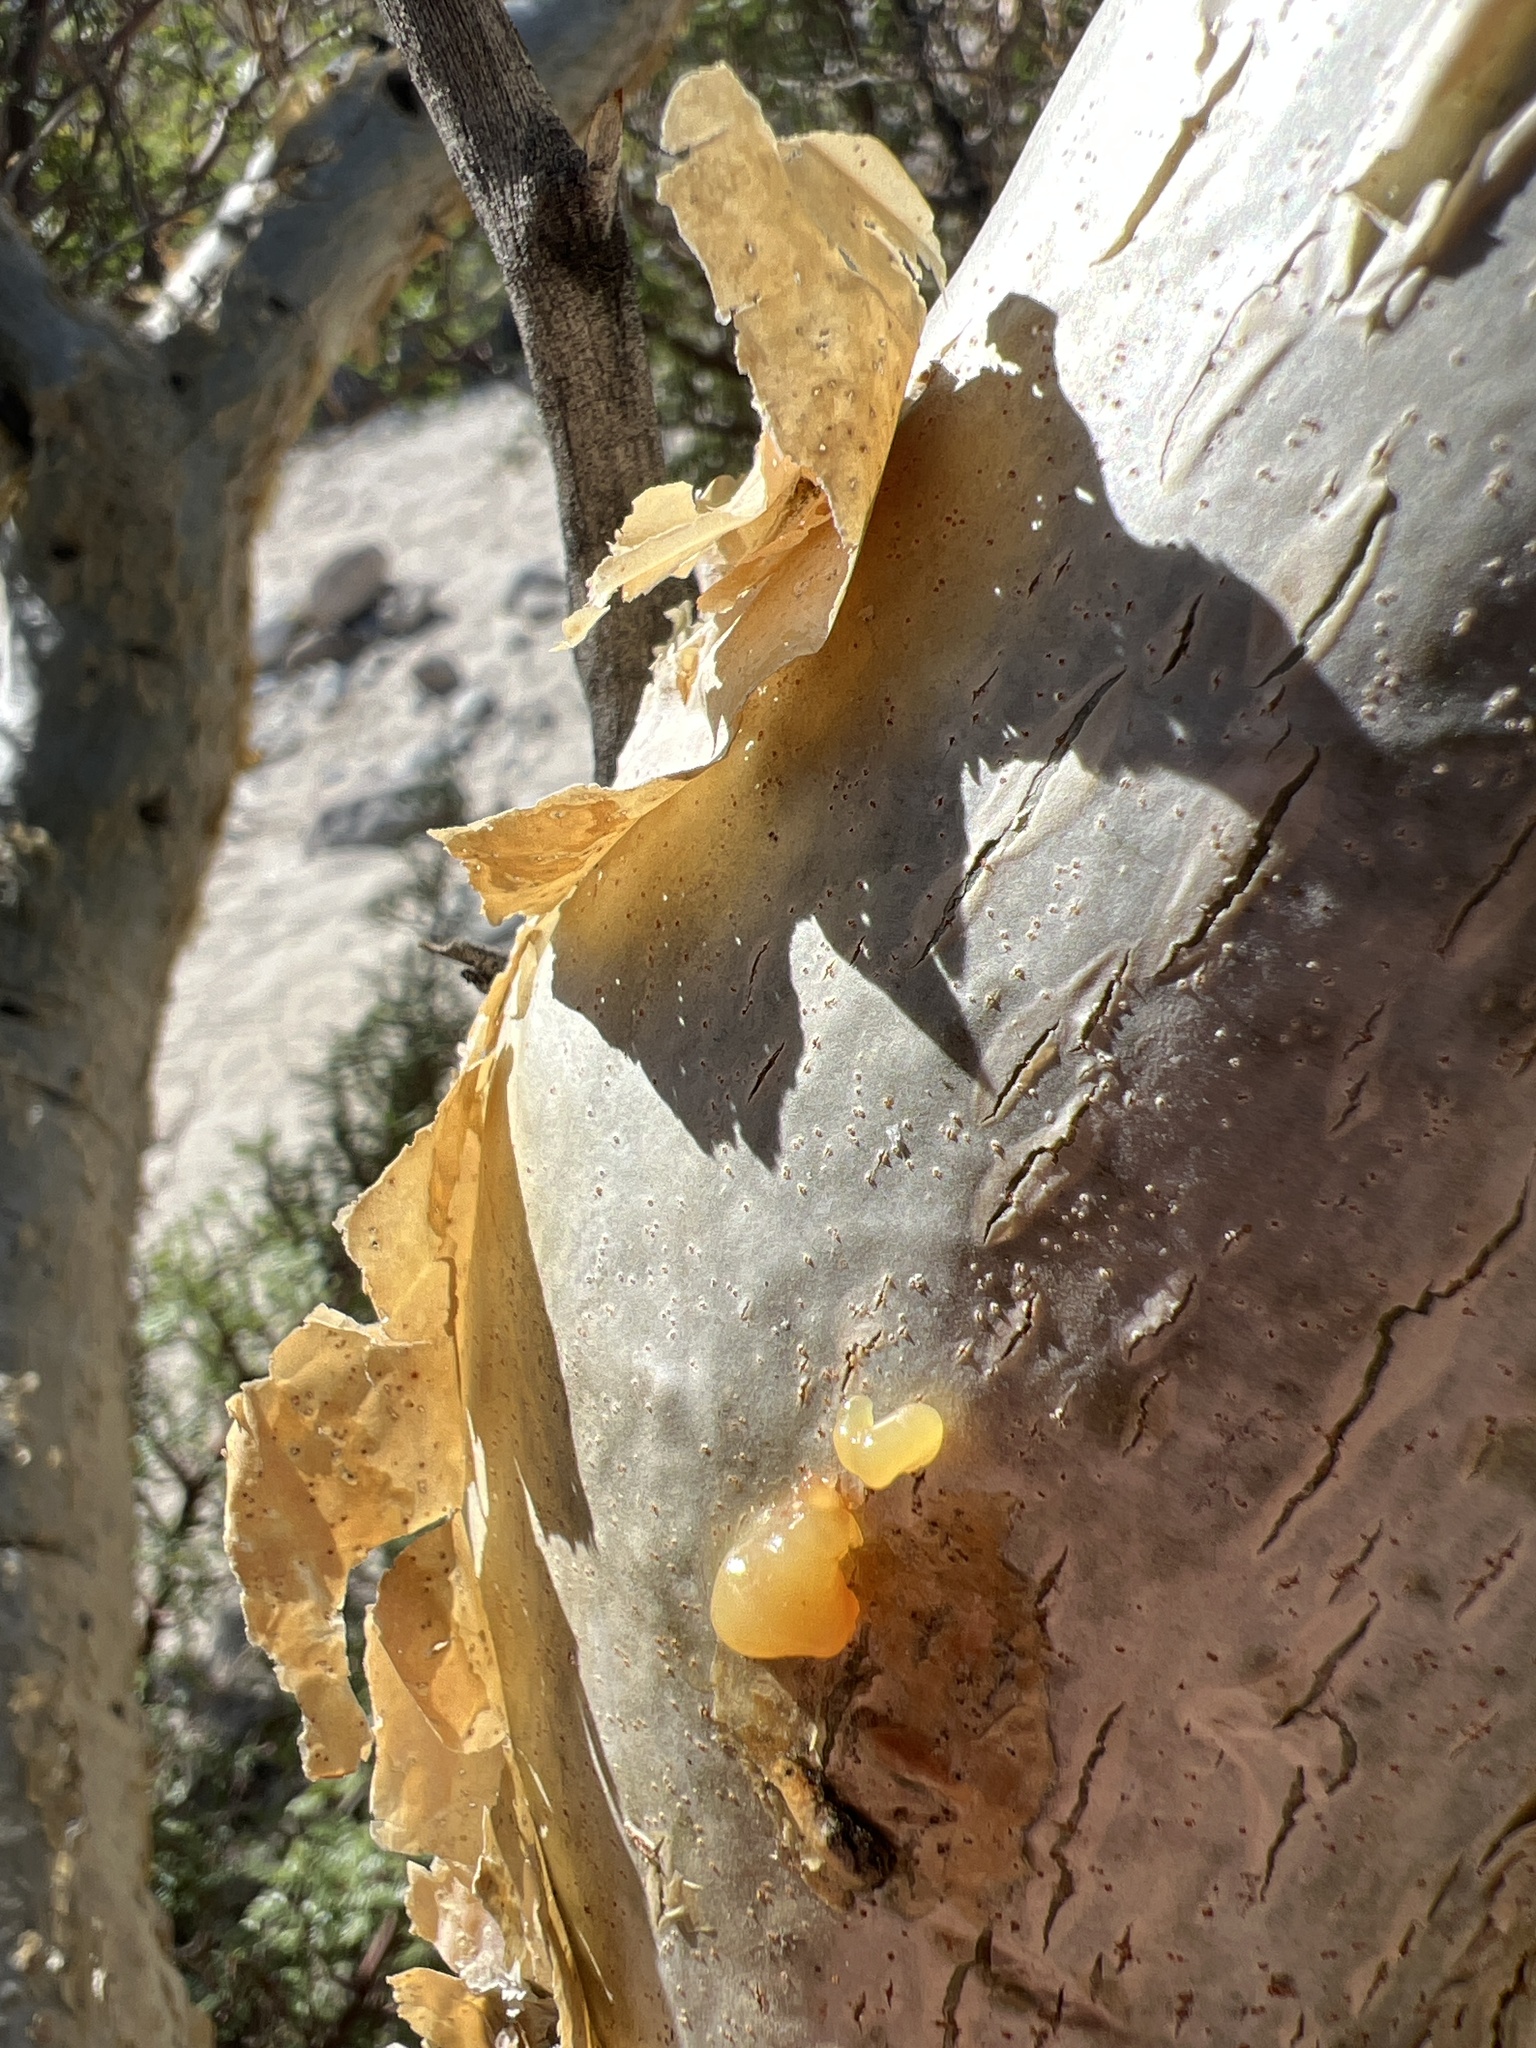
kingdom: Plantae
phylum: Tracheophyta
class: Magnoliopsida
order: Sapindales
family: Burseraceae
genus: Bursera
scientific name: Bursera microphylla
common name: Elephant tree
